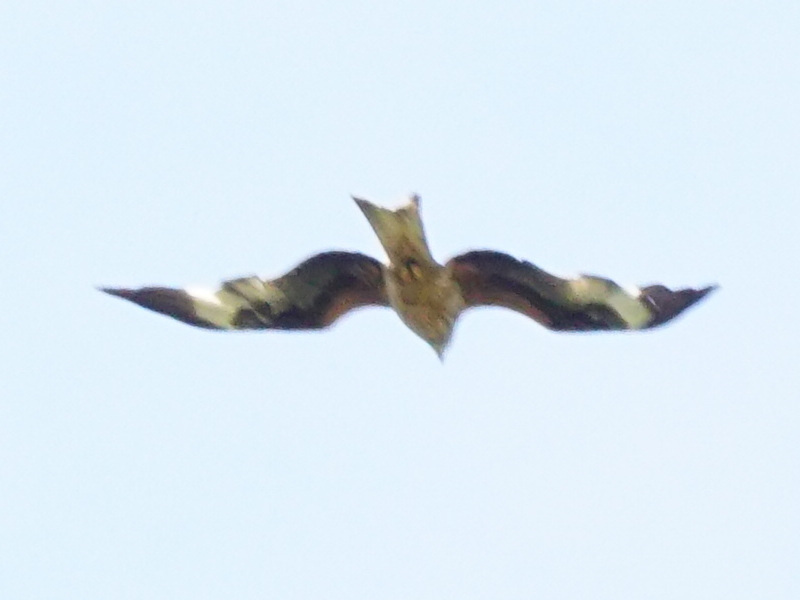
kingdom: Animalia
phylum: Chordata
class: Aves
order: Accipitriformes
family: Accipitridae
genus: Milvus
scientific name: Milvus milvus
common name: Red kite
